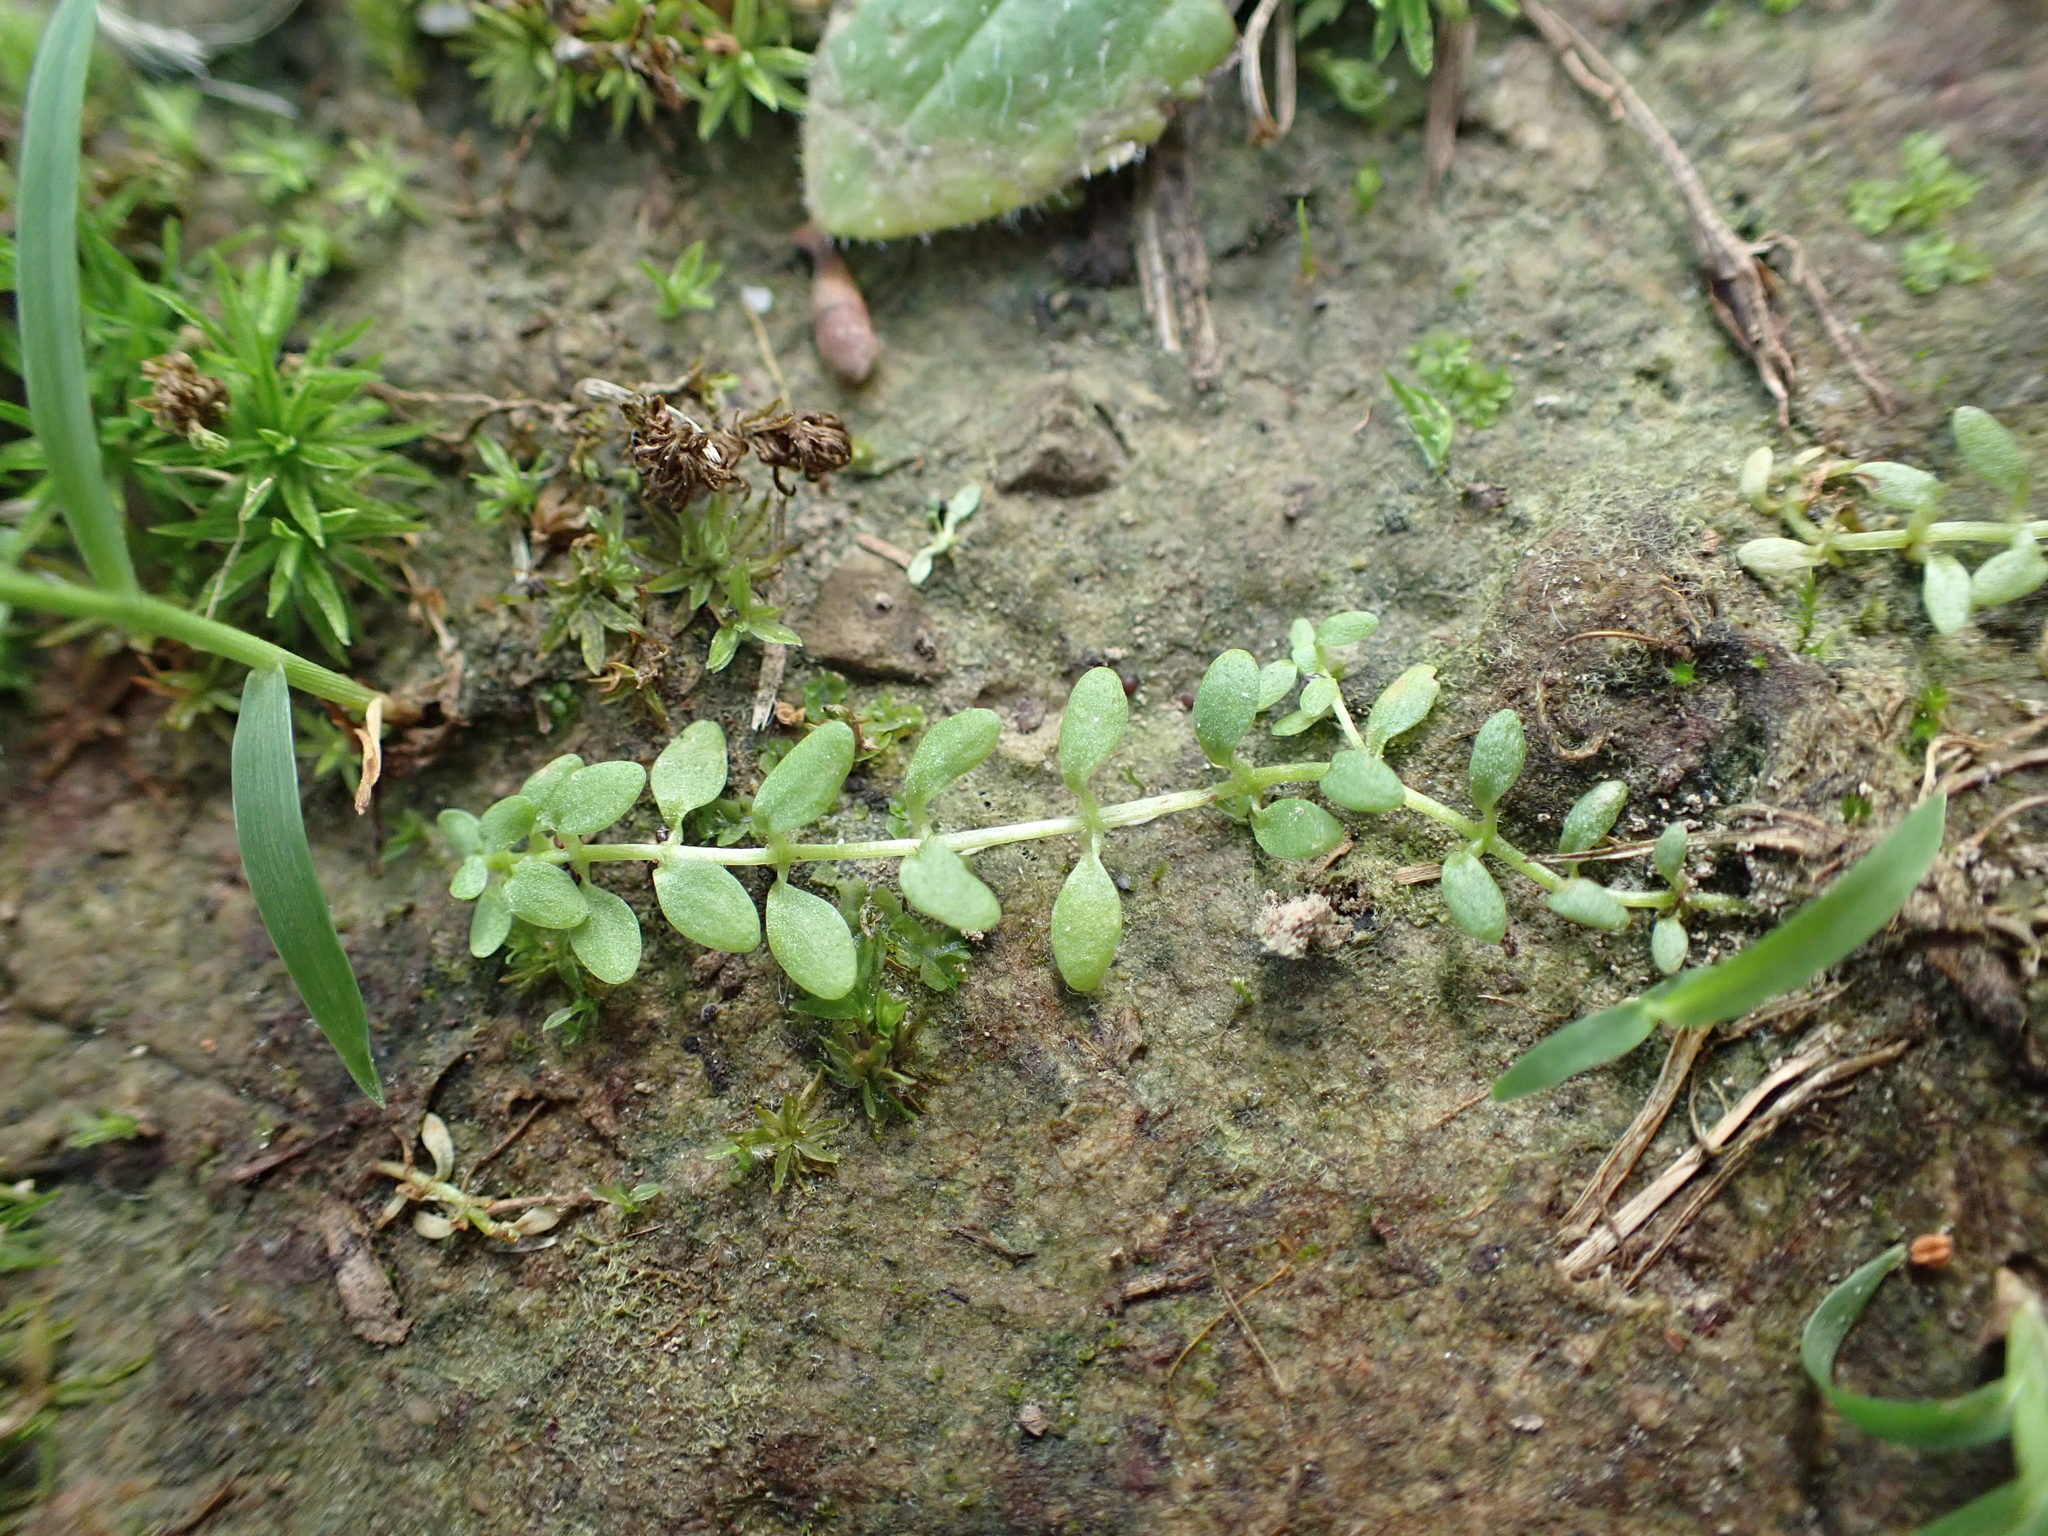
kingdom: Plantae
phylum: Tracheophyta
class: Magnoliopsida
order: Lamiales
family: Plantaginaceae
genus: Callitriche
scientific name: Callitriche terrestris
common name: Terrestrial water-starwort
